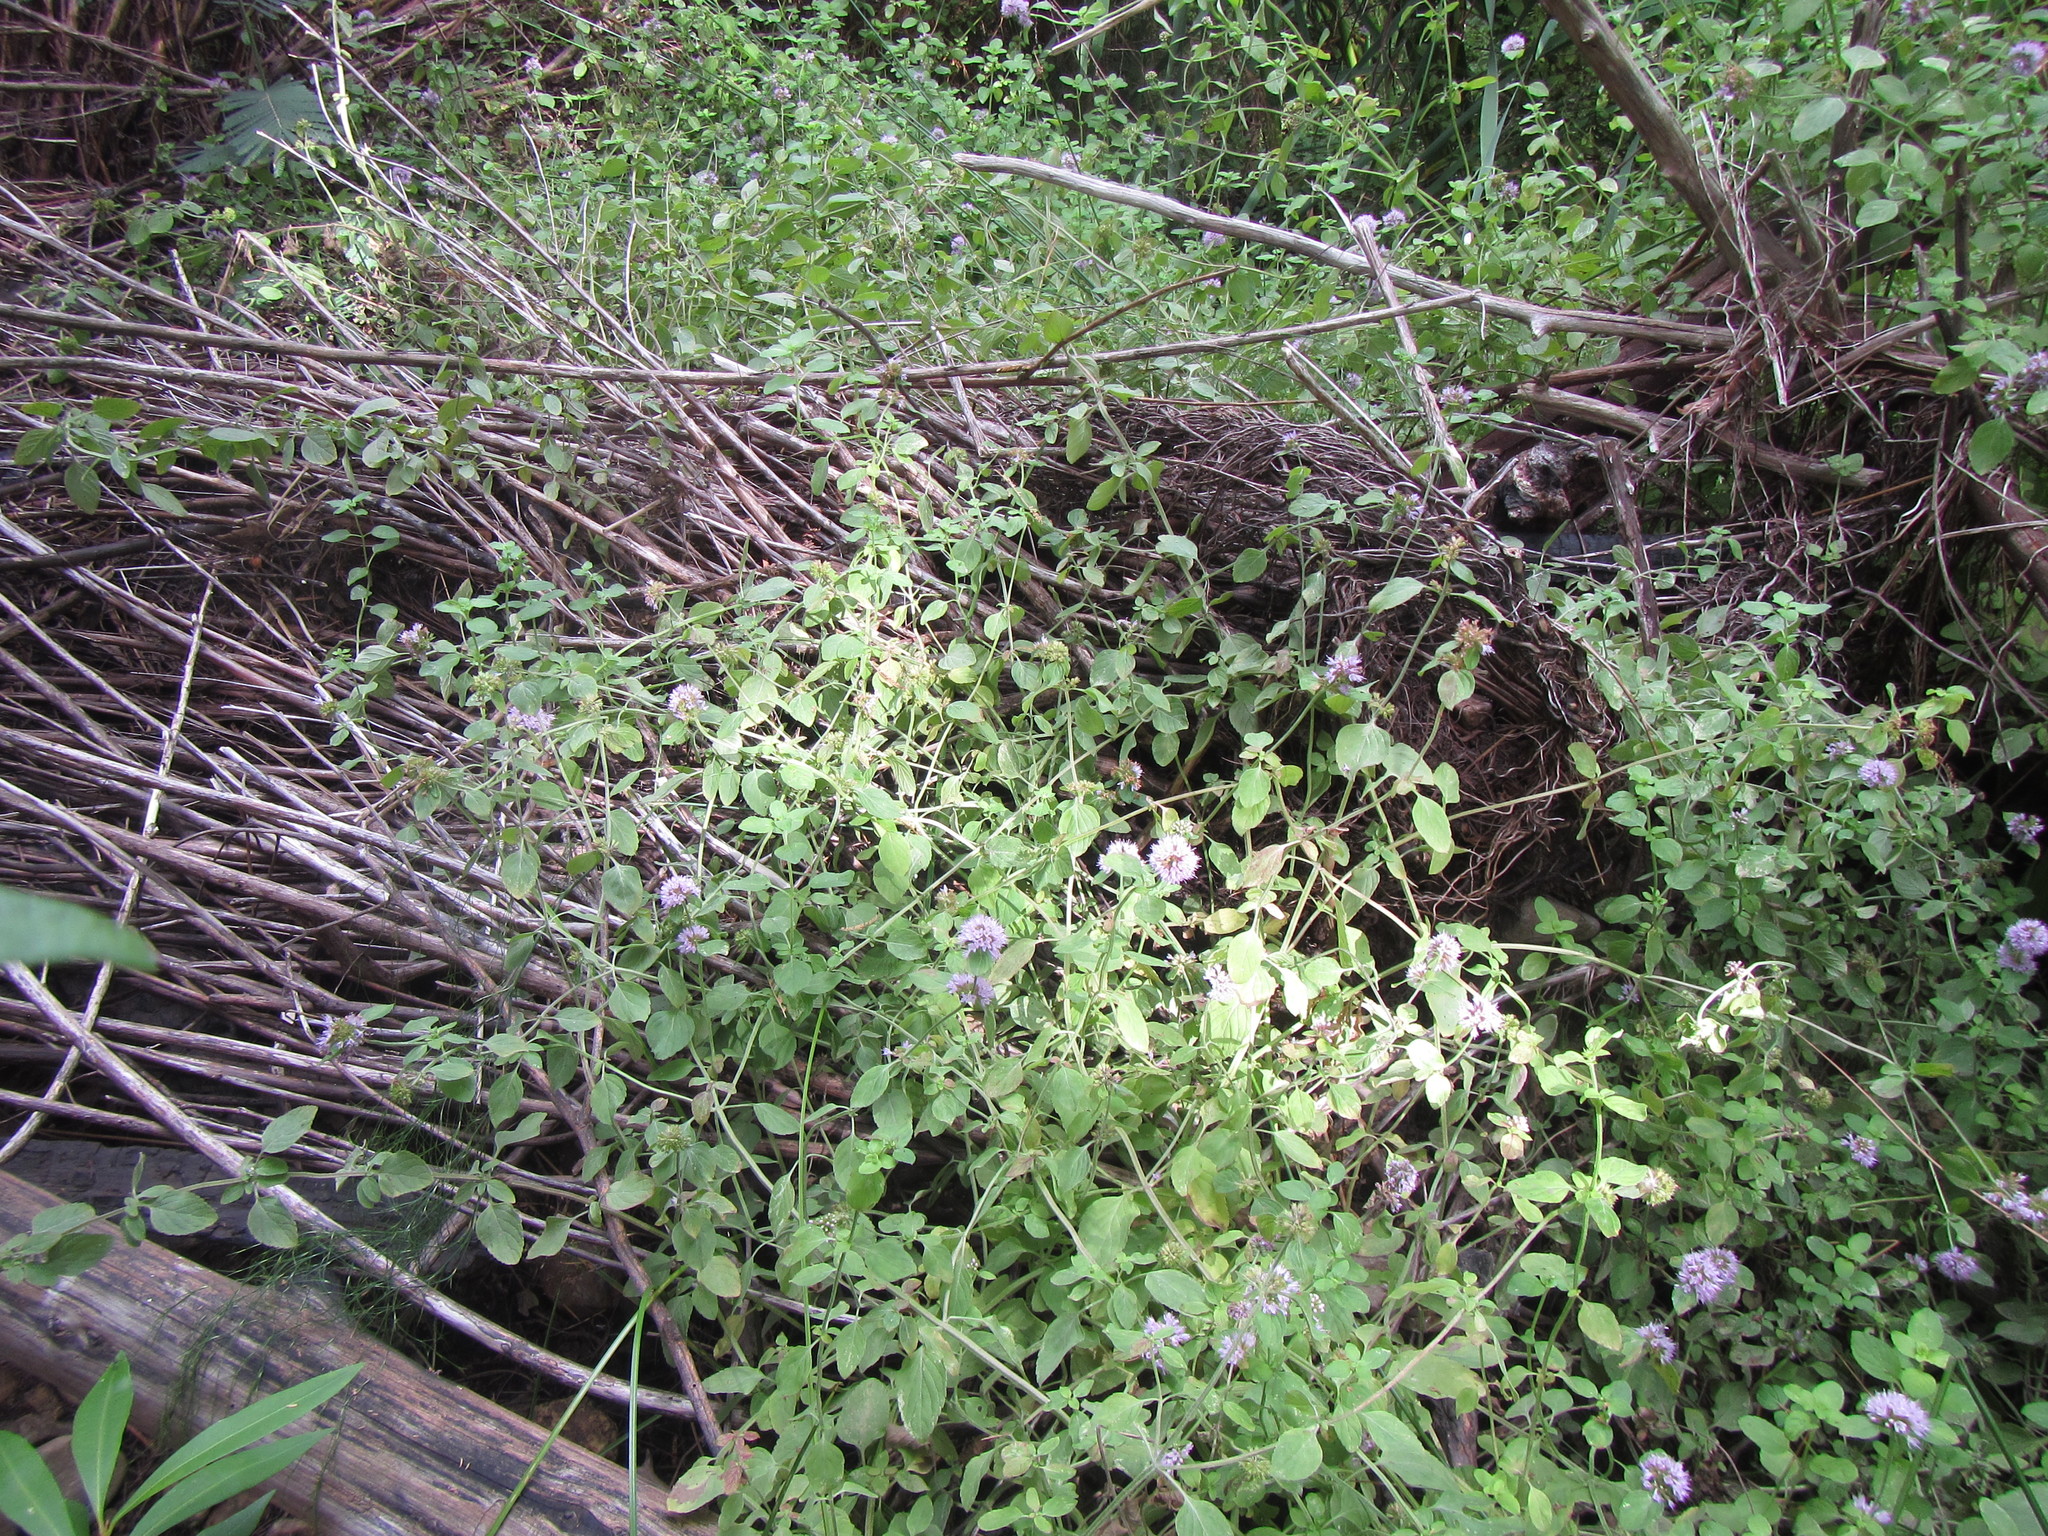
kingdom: Plantae
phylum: Tracheophyta
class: Magnoliopsida
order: Lamiales
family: Lamiaceae
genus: Mentha
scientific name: Mentha aquatica
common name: Water mint
